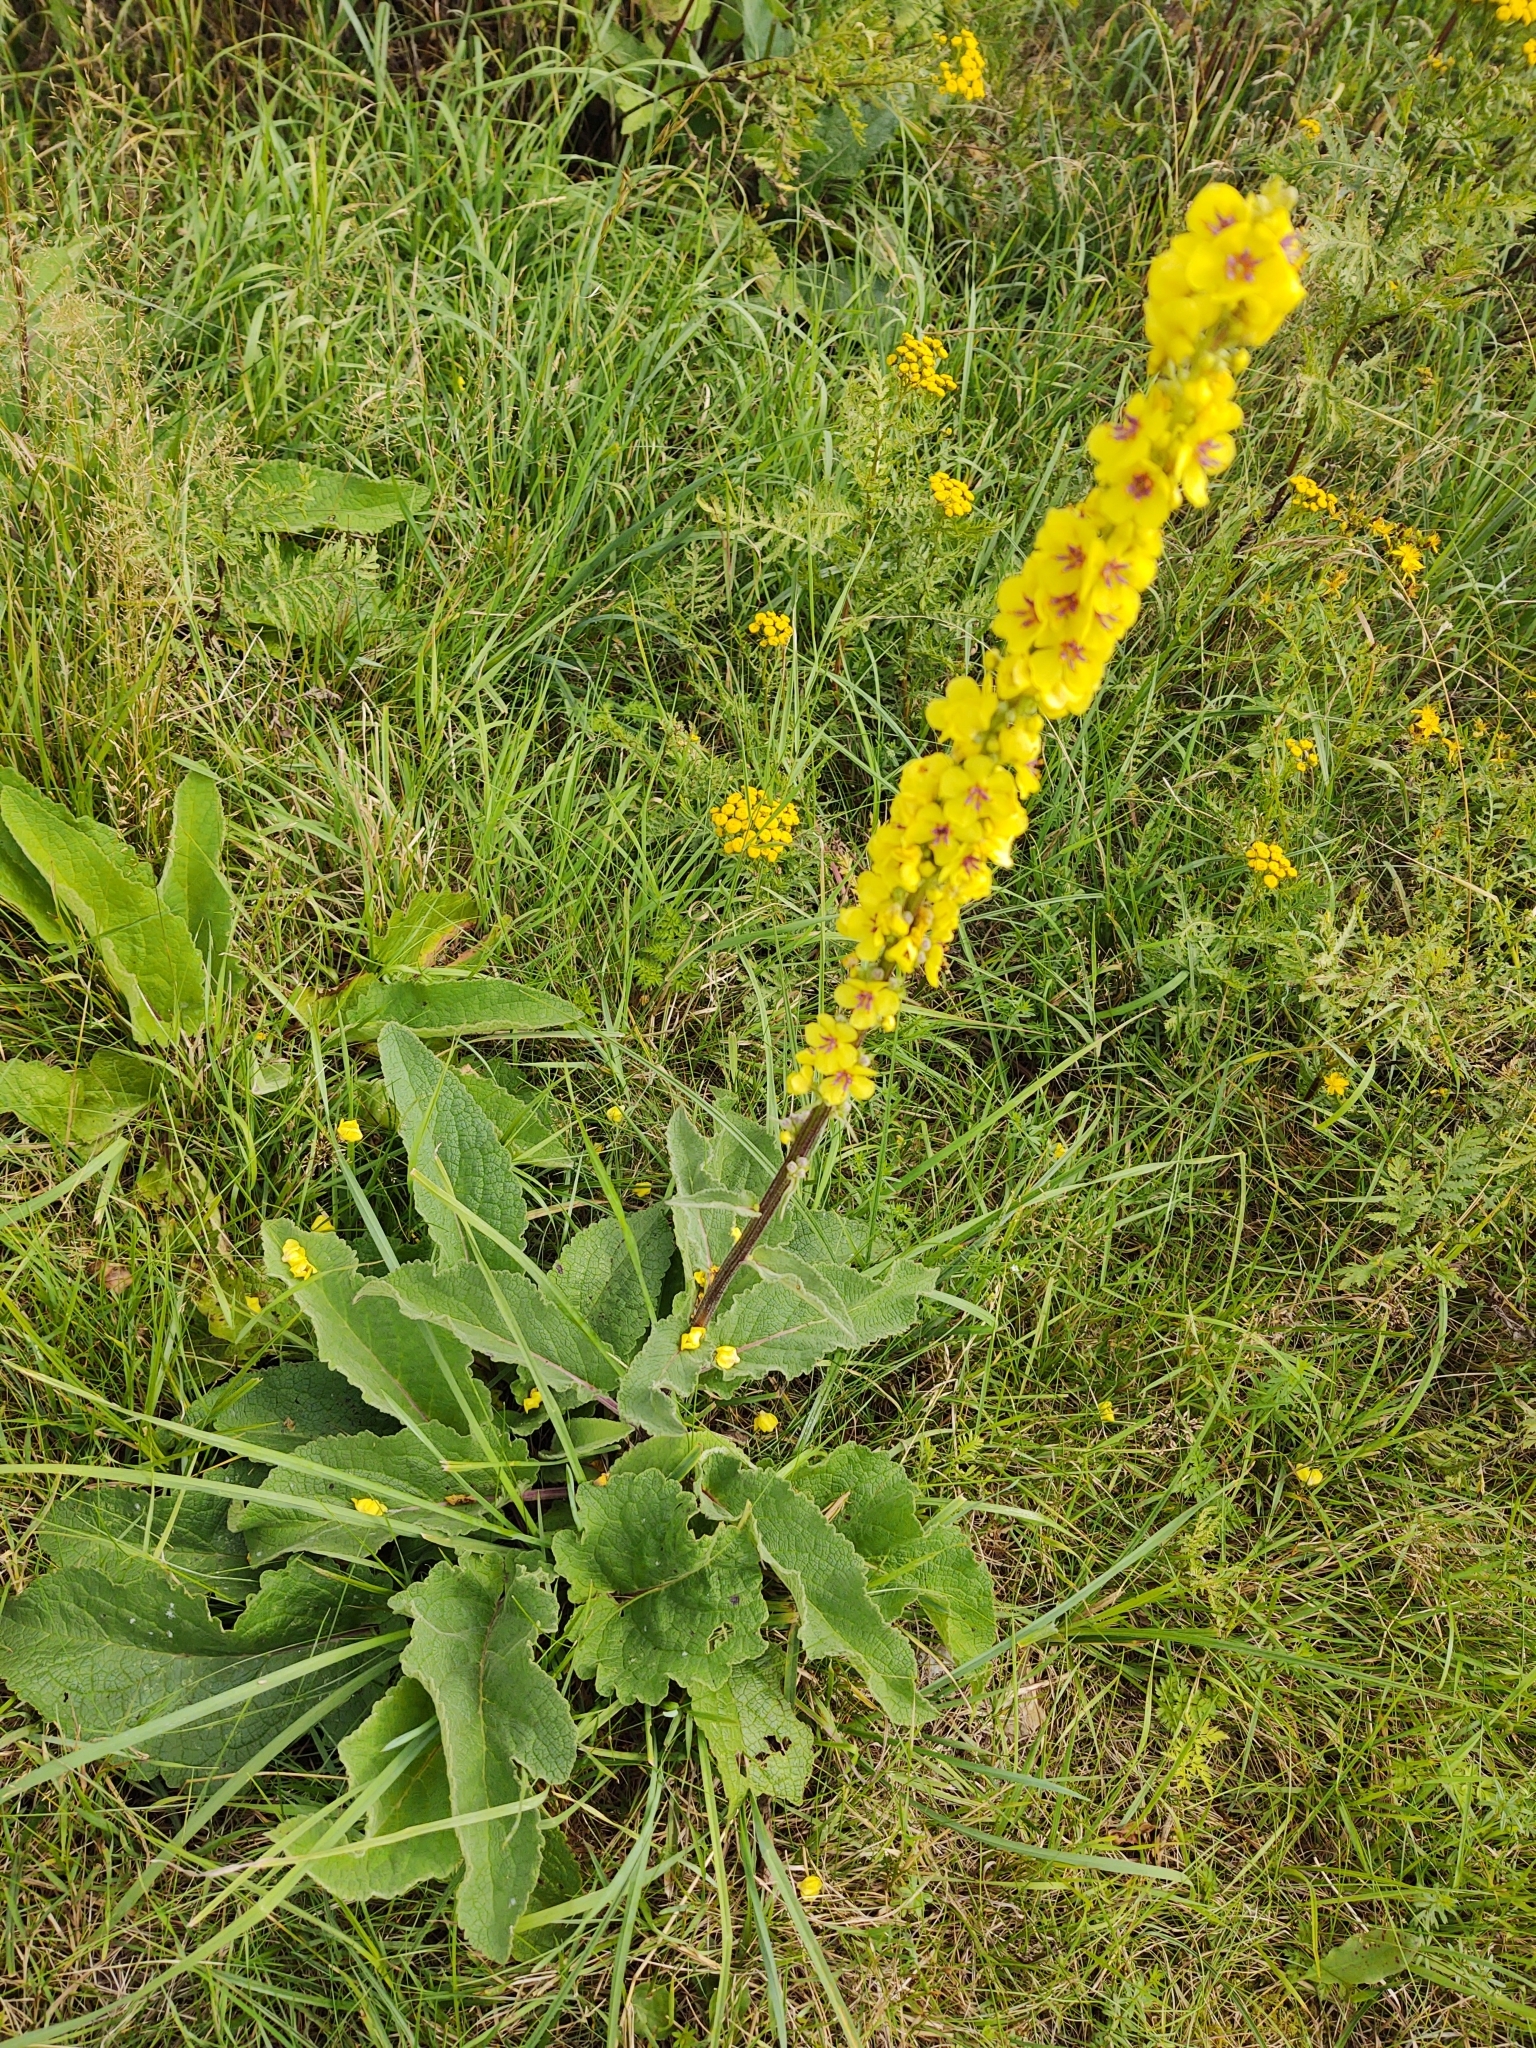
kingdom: Plantae
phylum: Tracheophyta
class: Magnoliopsida
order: Lamiales
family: Scrophulariaceae
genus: Verbascum
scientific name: Verbascum nigrum
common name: Dark mullein
